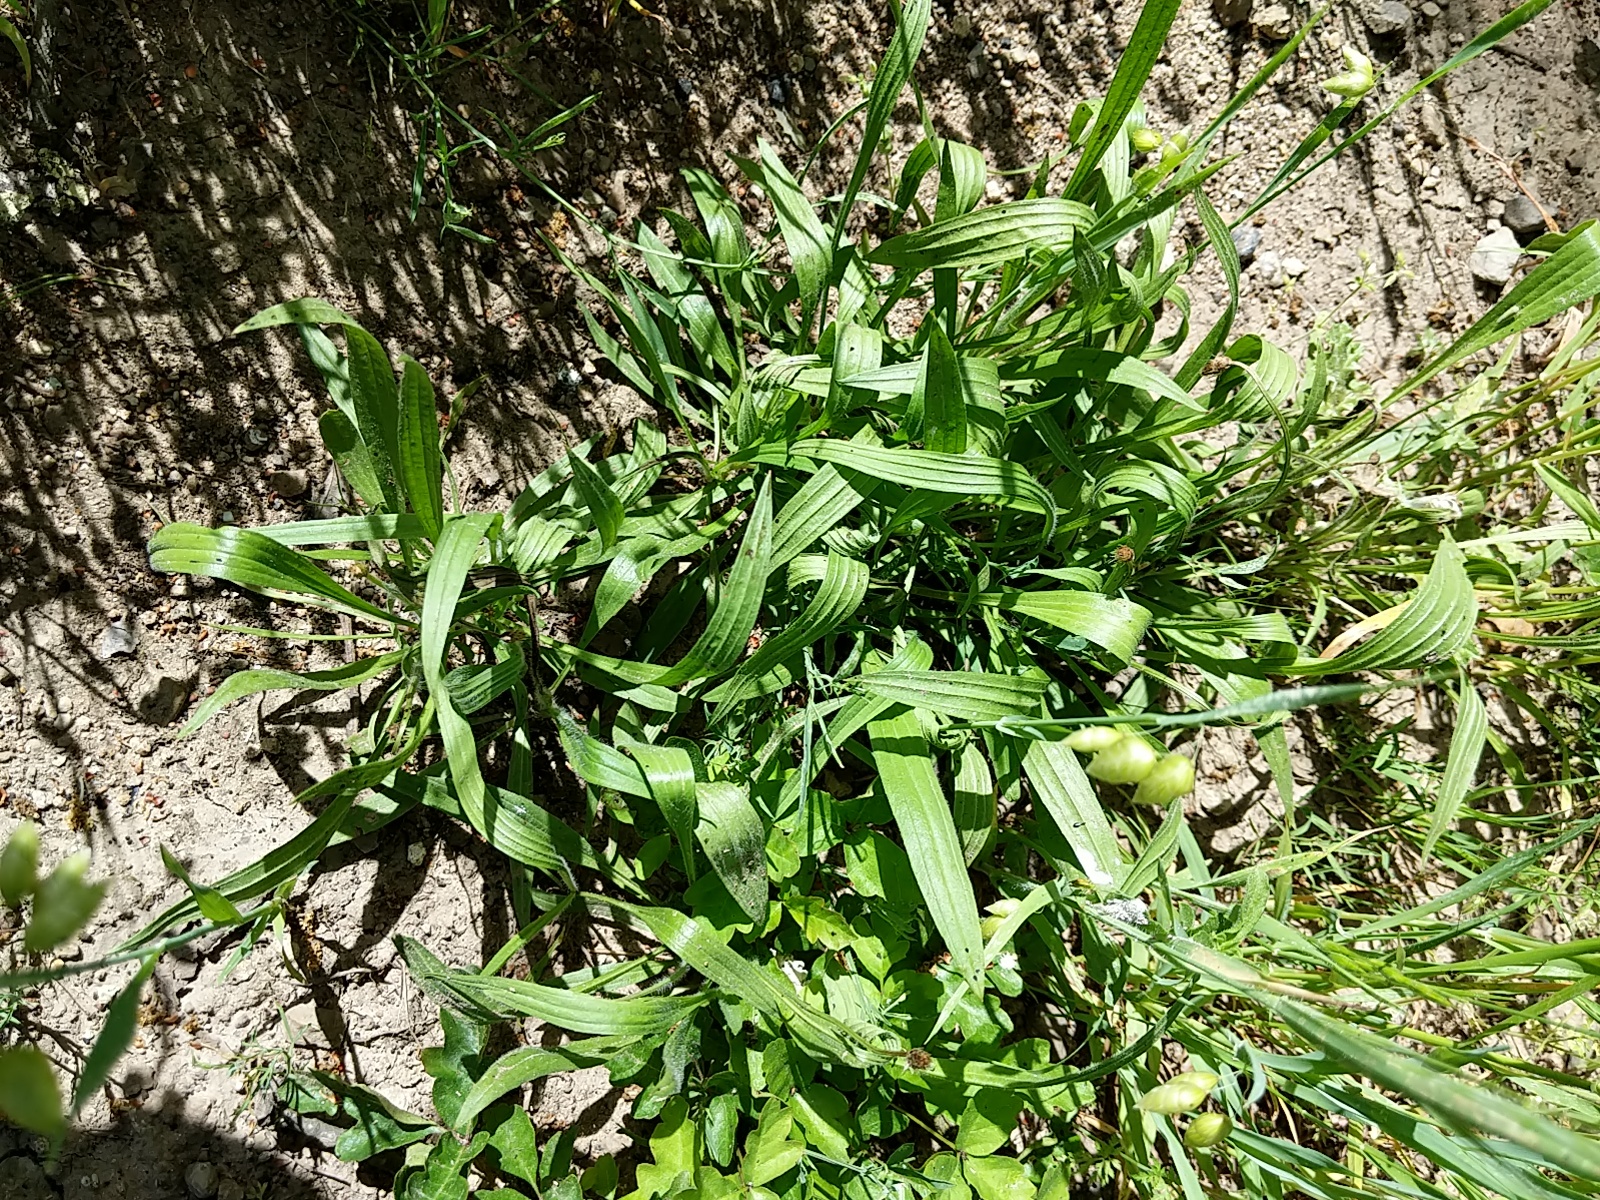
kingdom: Plantae
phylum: Tracheophyta
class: Magnoliopsida
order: Lamiales
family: Plantaginaceae
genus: Plantago
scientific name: Plantago lanceolata
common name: Ribwort plantain
